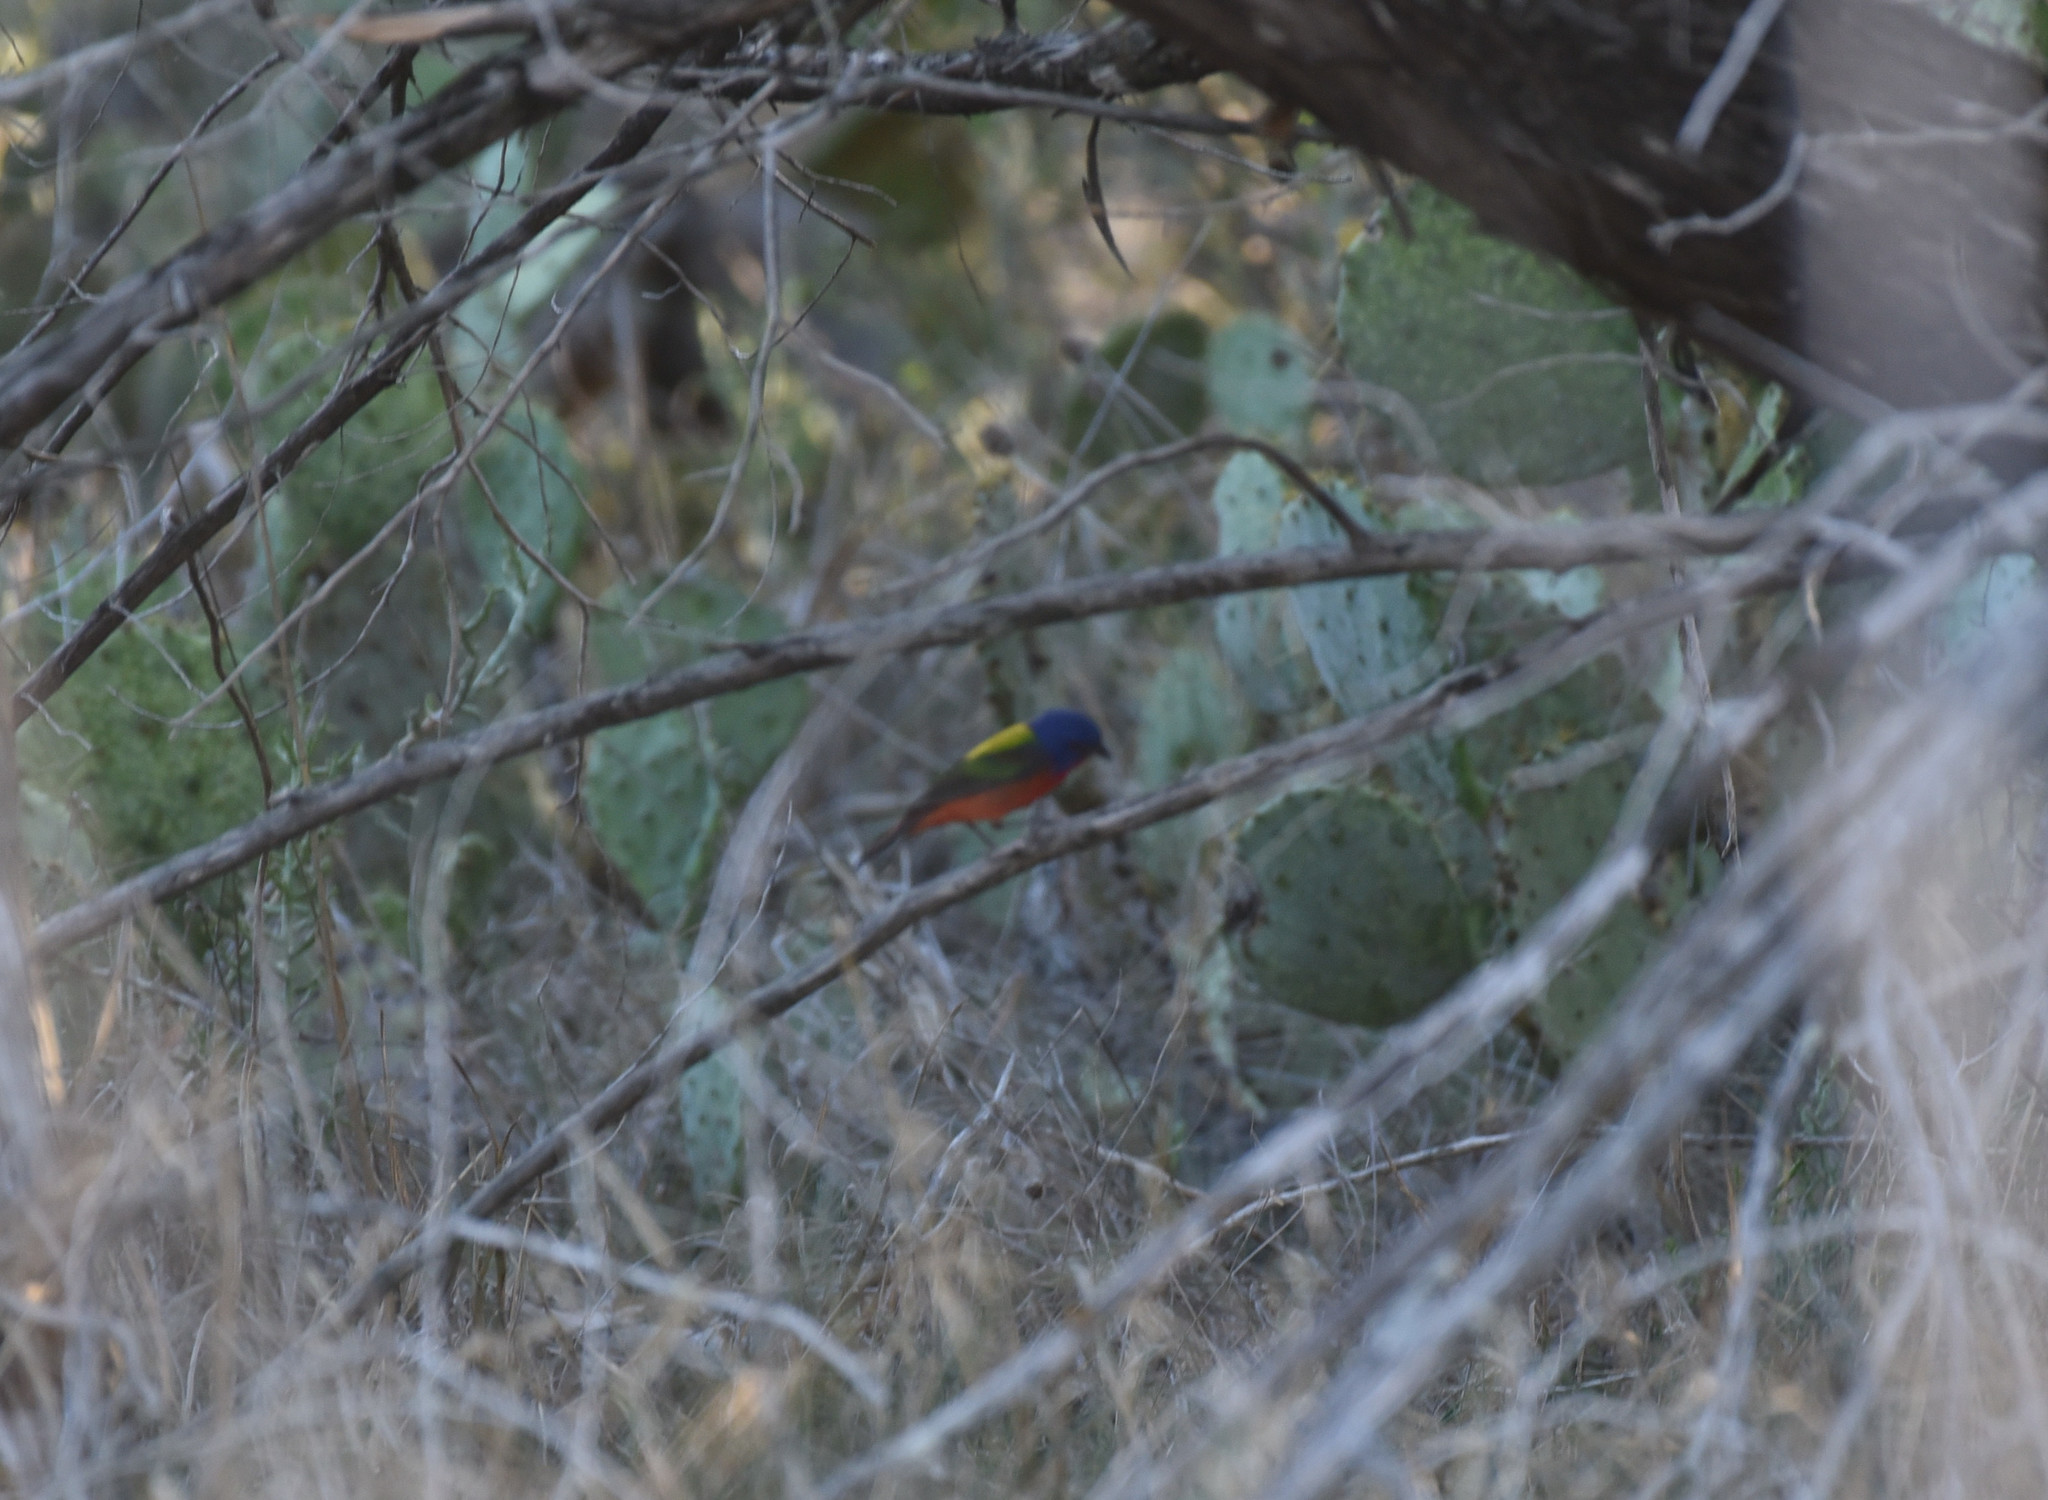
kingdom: Animalia
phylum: Chordata
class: Aves
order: Passeriformes
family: Cardinalidae
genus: Passerina
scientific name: Passerina ciris
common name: Painted bunting
